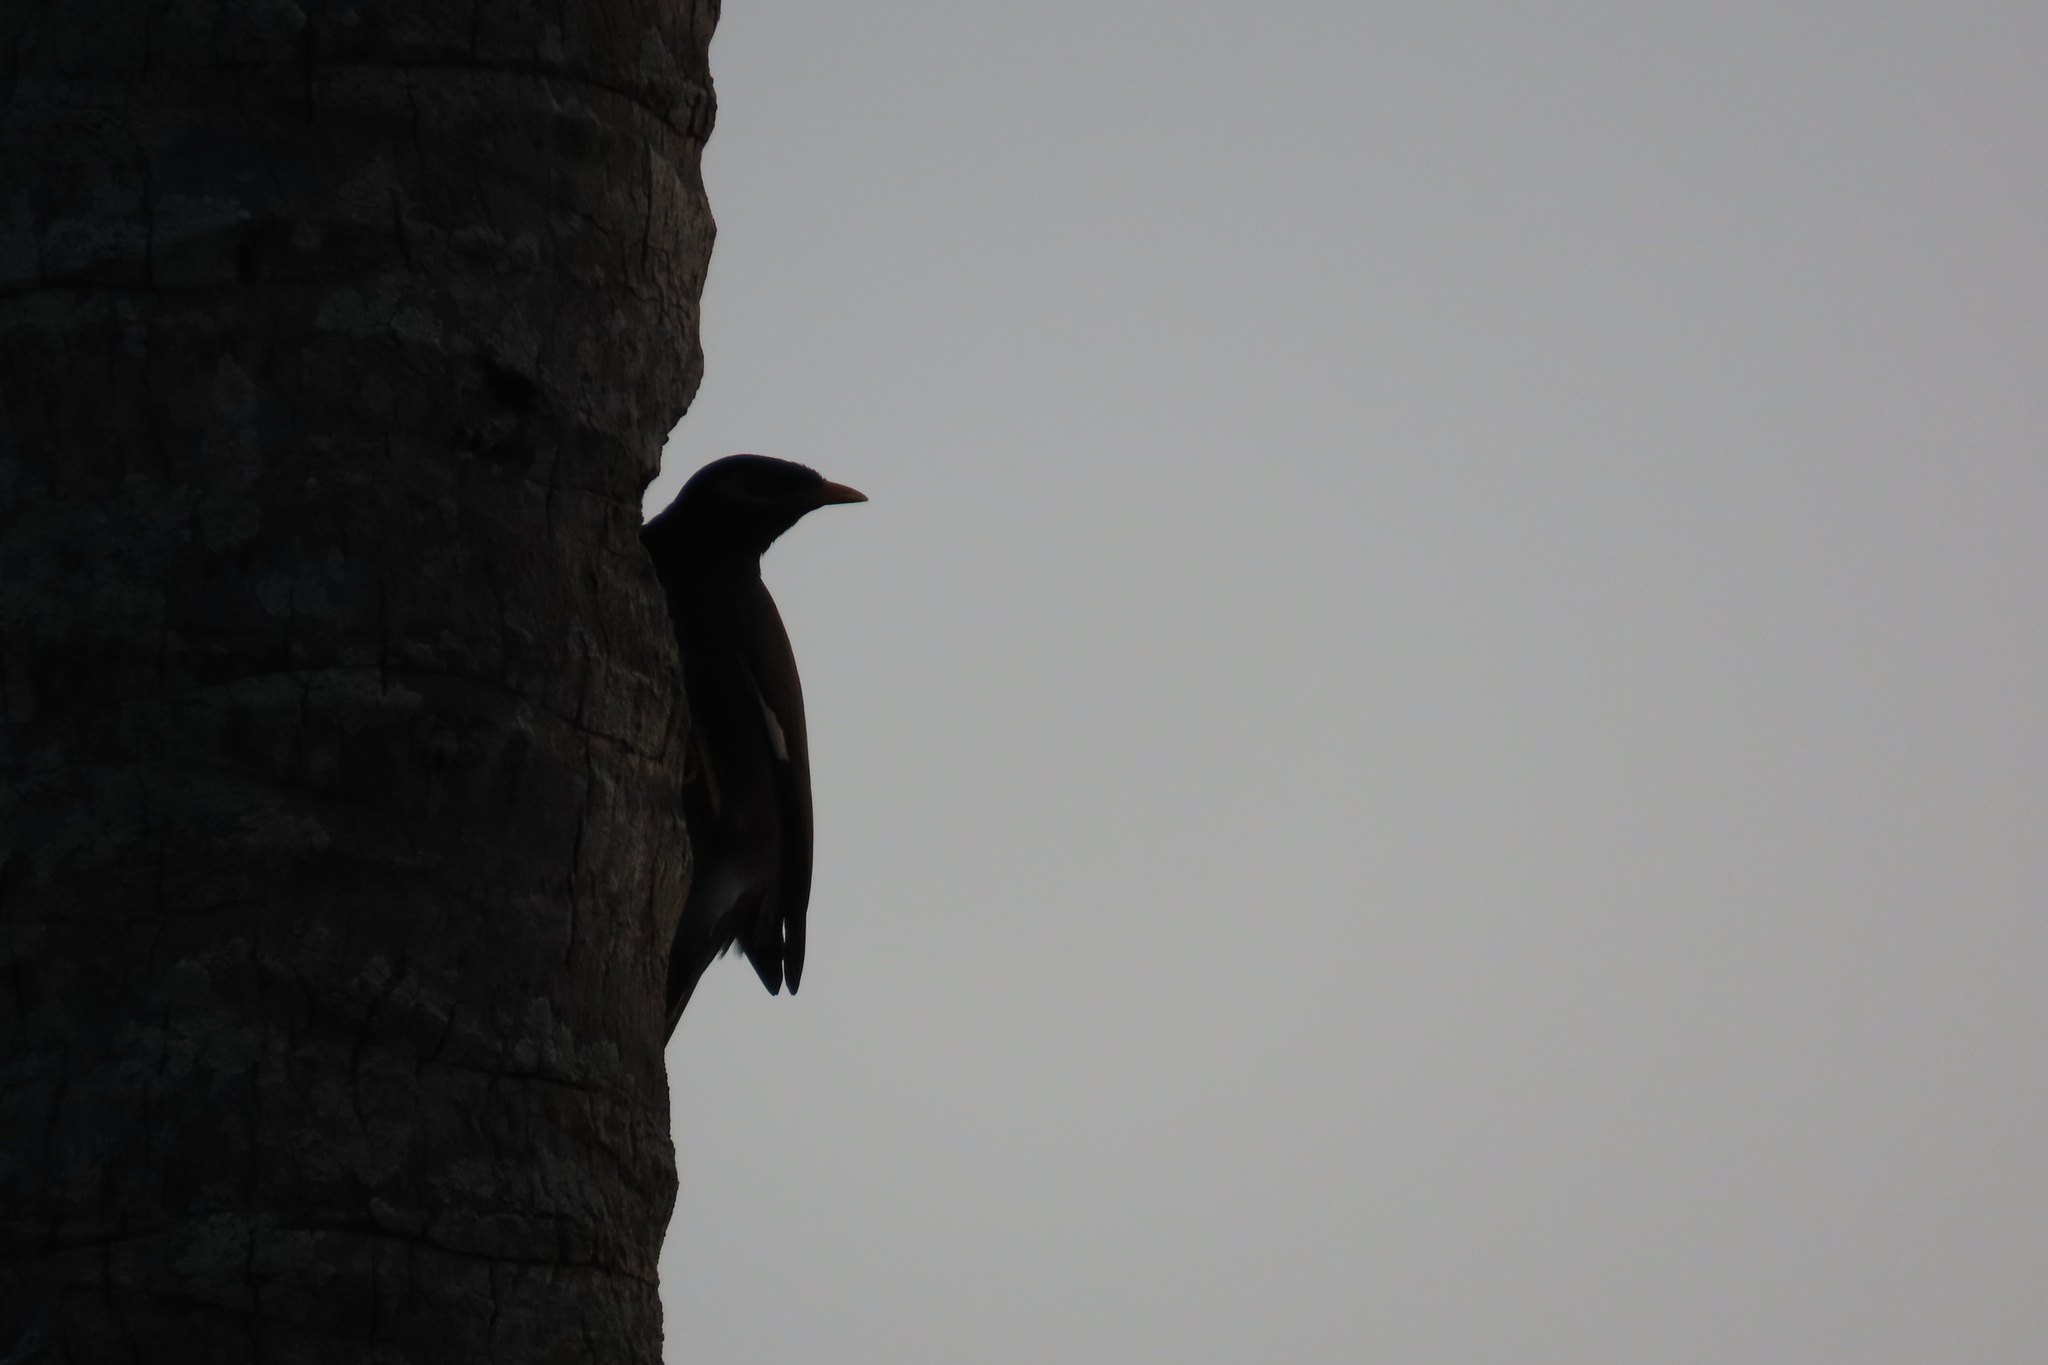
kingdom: Animalia
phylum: Chordata
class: Aves
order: Passeriformes
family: Sturnidae
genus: Acridotheres
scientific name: Acridotheres tristis
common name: Common myna
